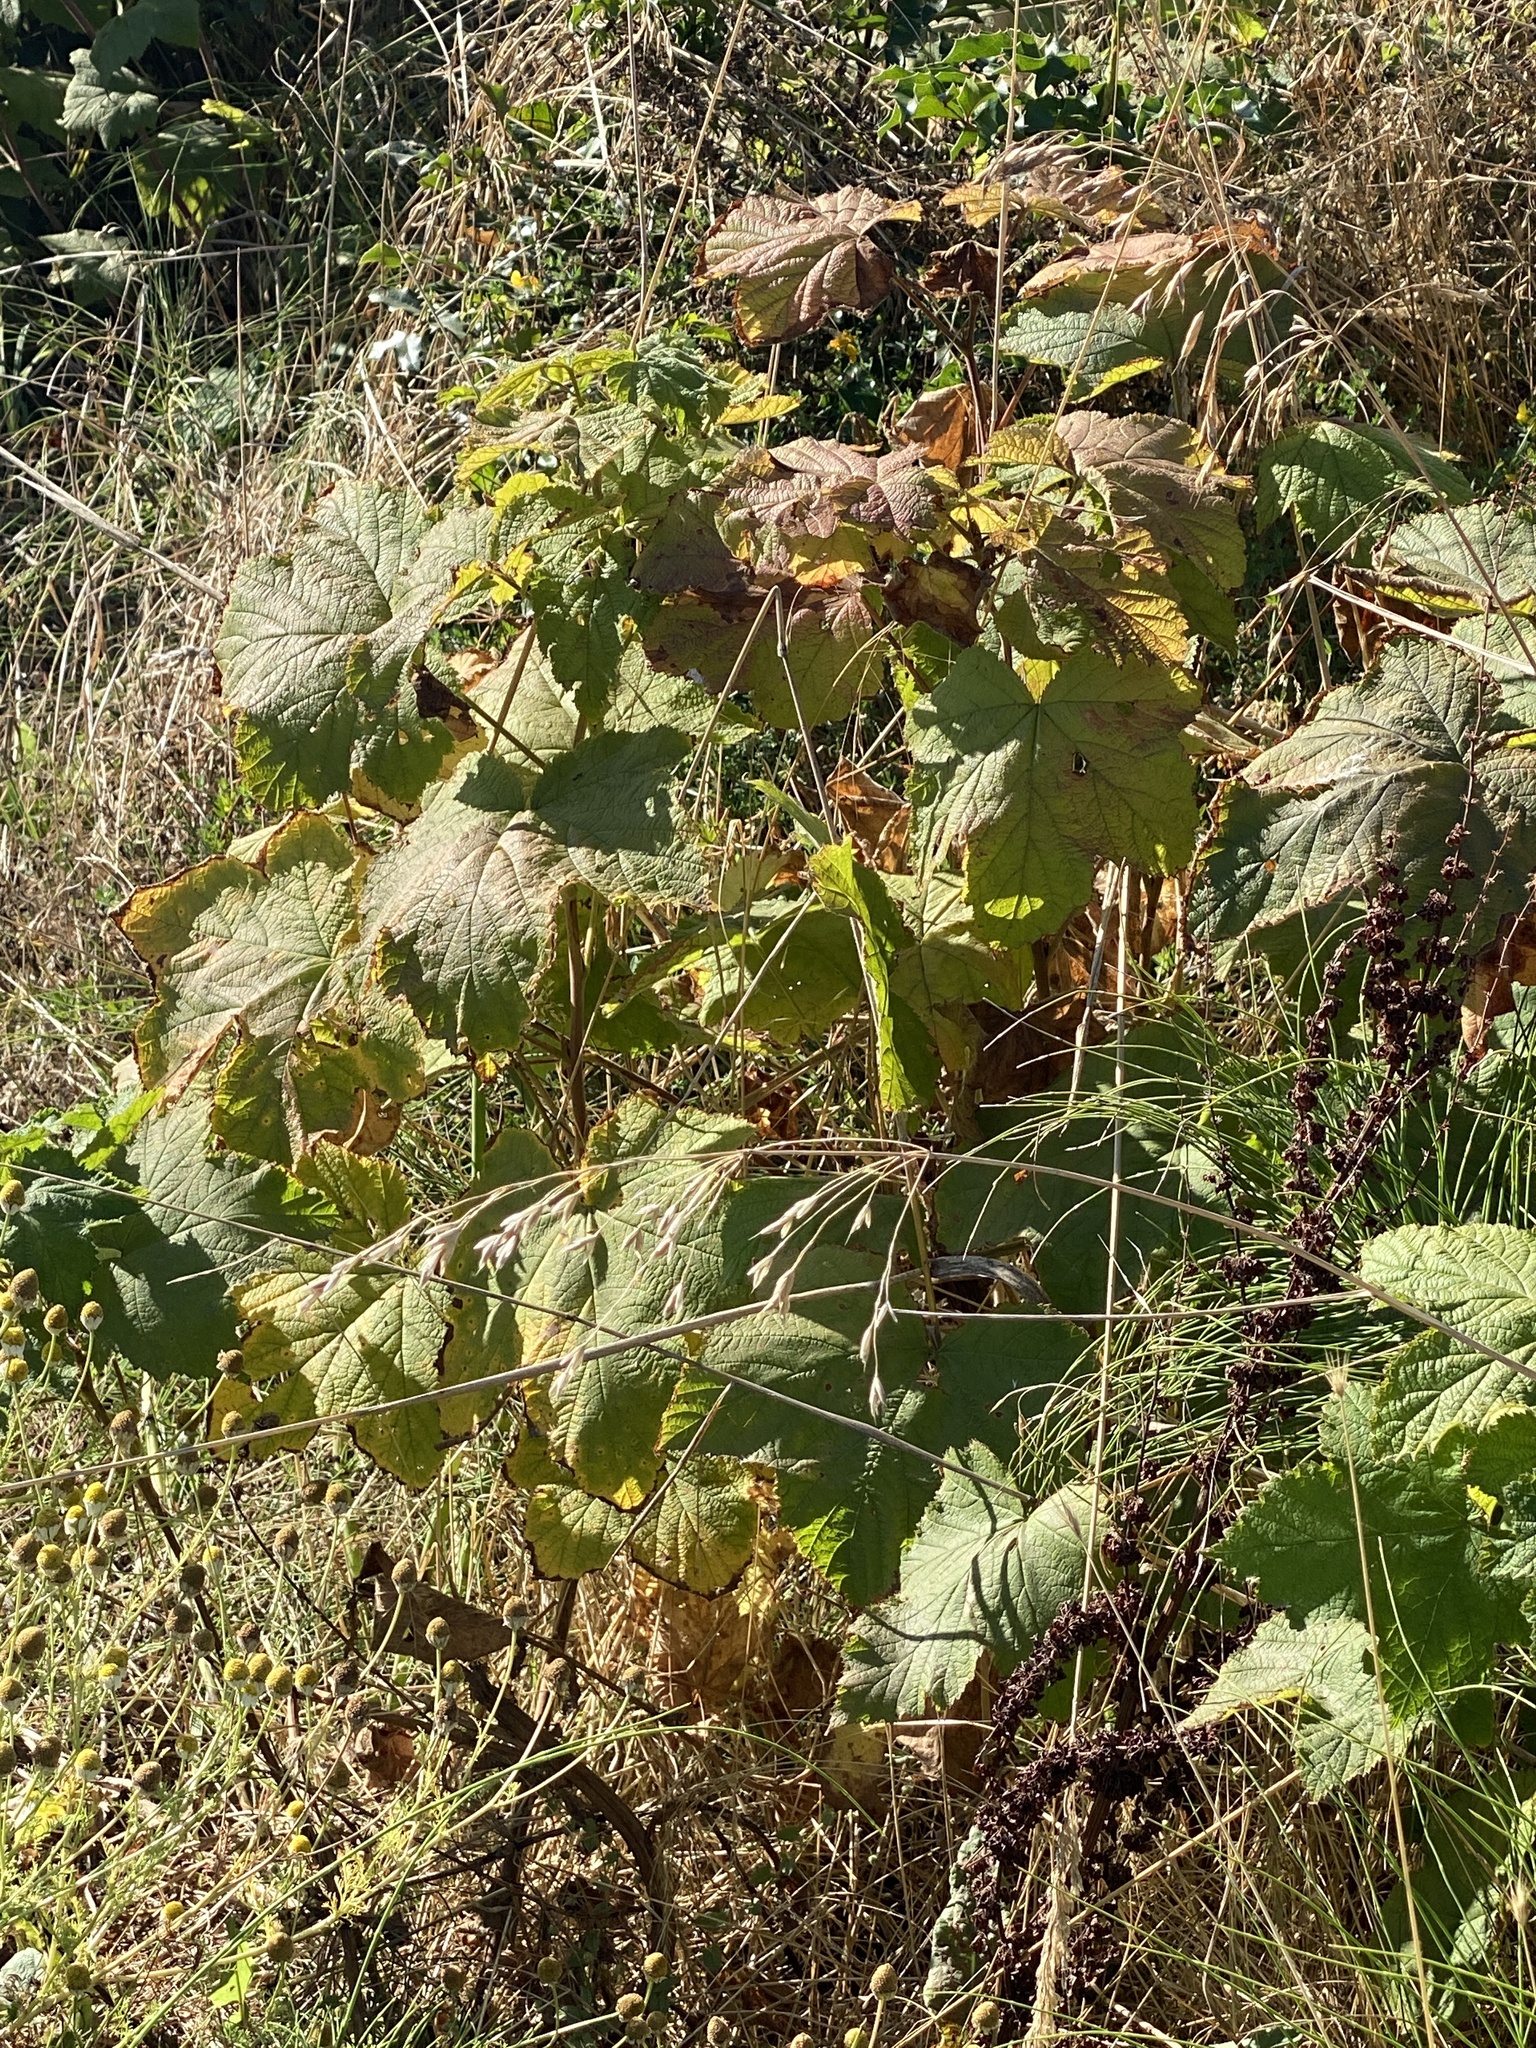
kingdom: Plantae
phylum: Tracheophyta
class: Magnoliopsida
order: Rosales
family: Rosaceae
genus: Rubus
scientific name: Rubus parviflorus
